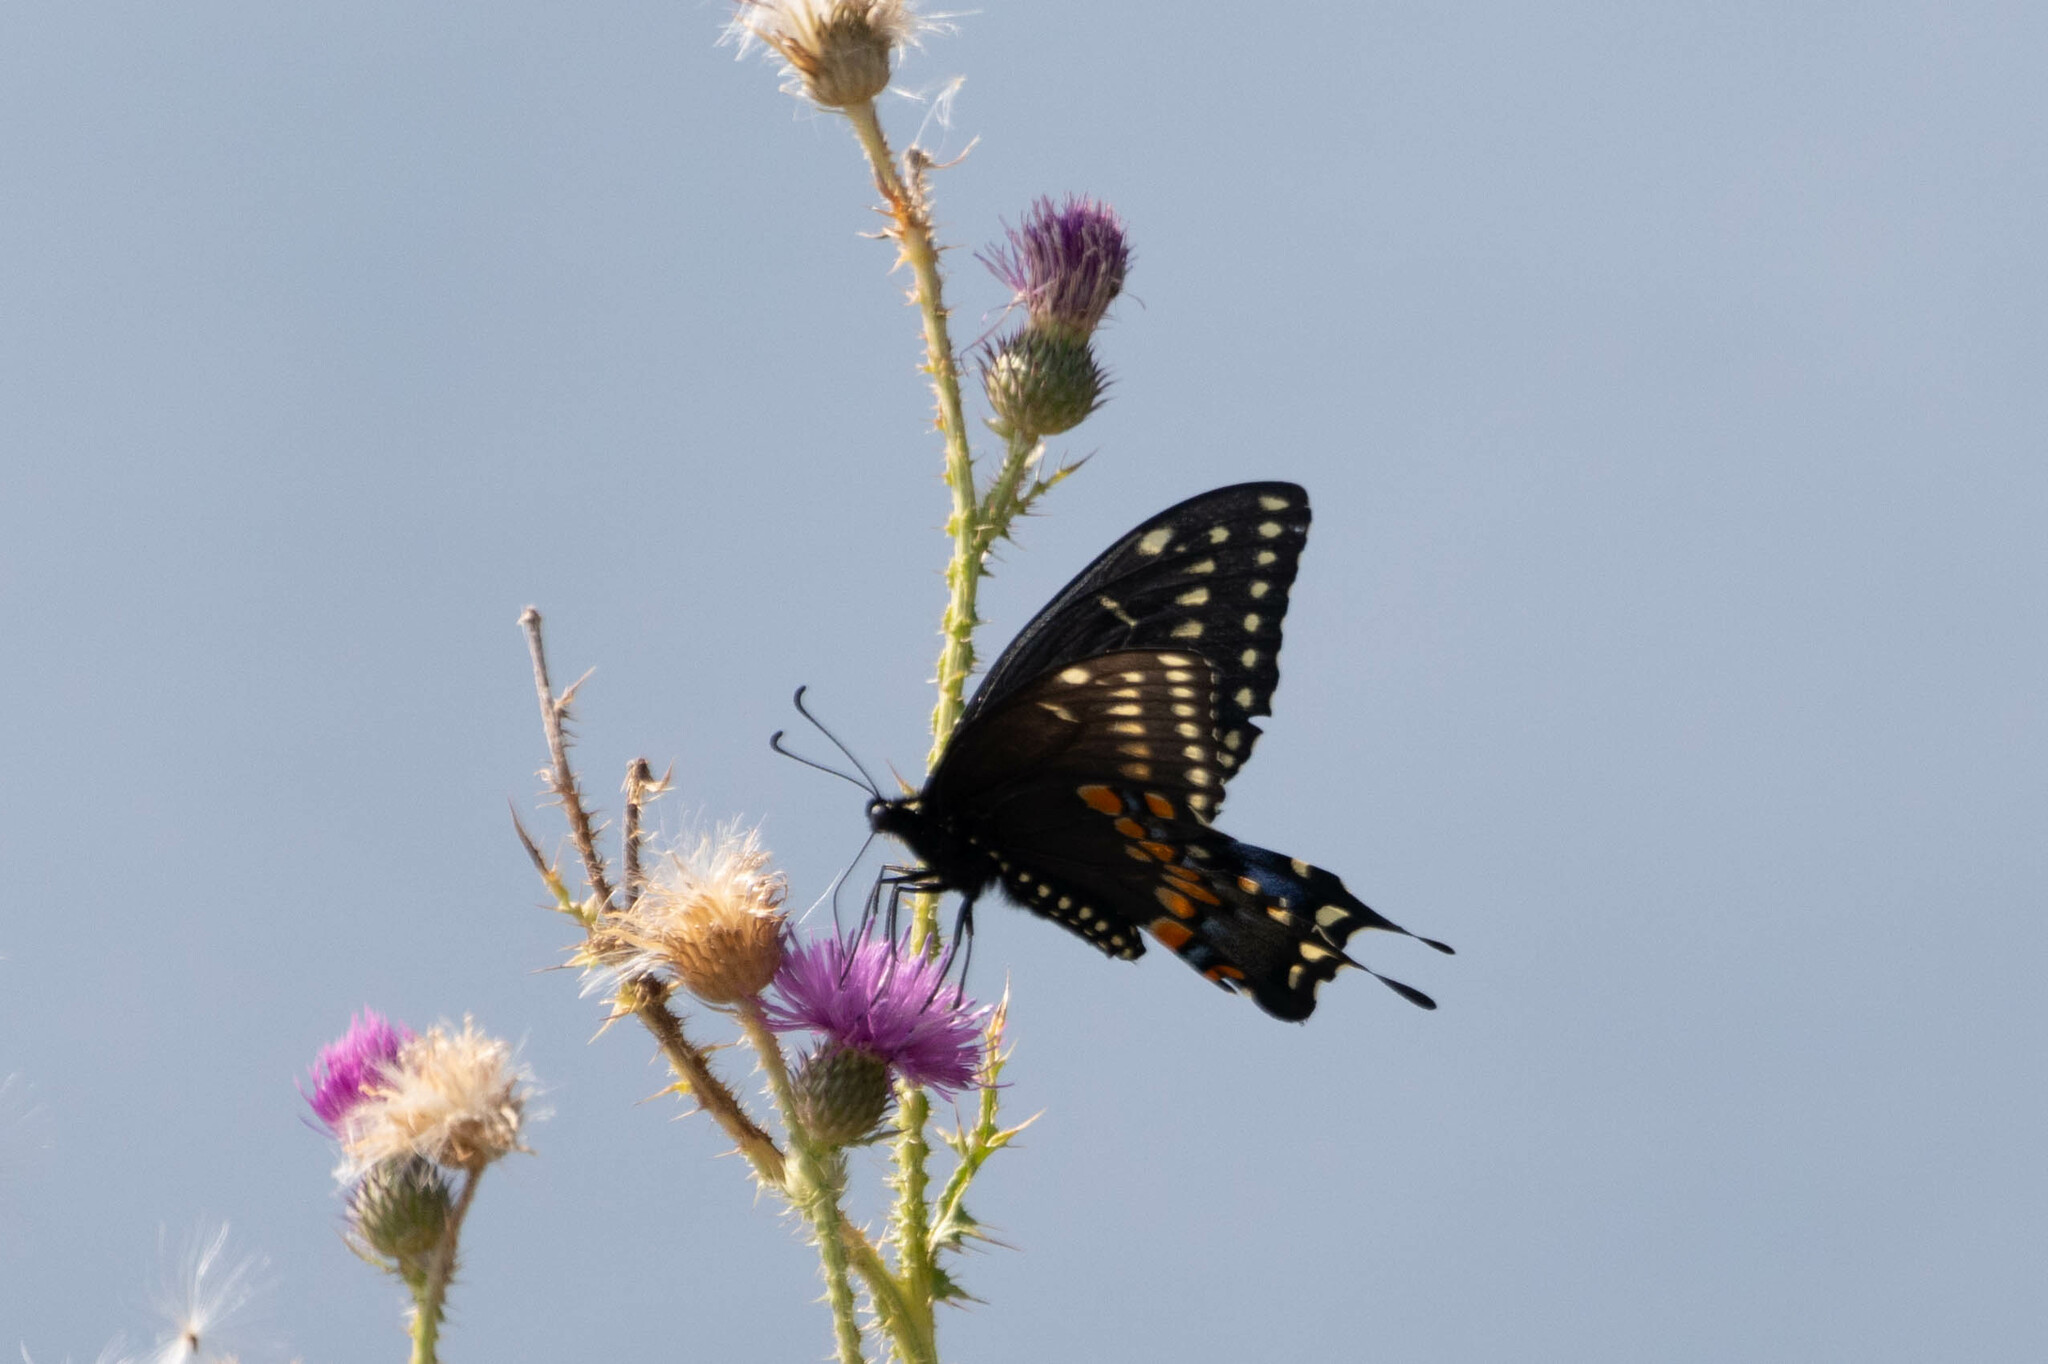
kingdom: Animalia
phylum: Arthropoda
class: Insecta
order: Lepidoptera
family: Papilionidae
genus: Papilio
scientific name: Papilio polyxenes
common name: Black swallowtail
